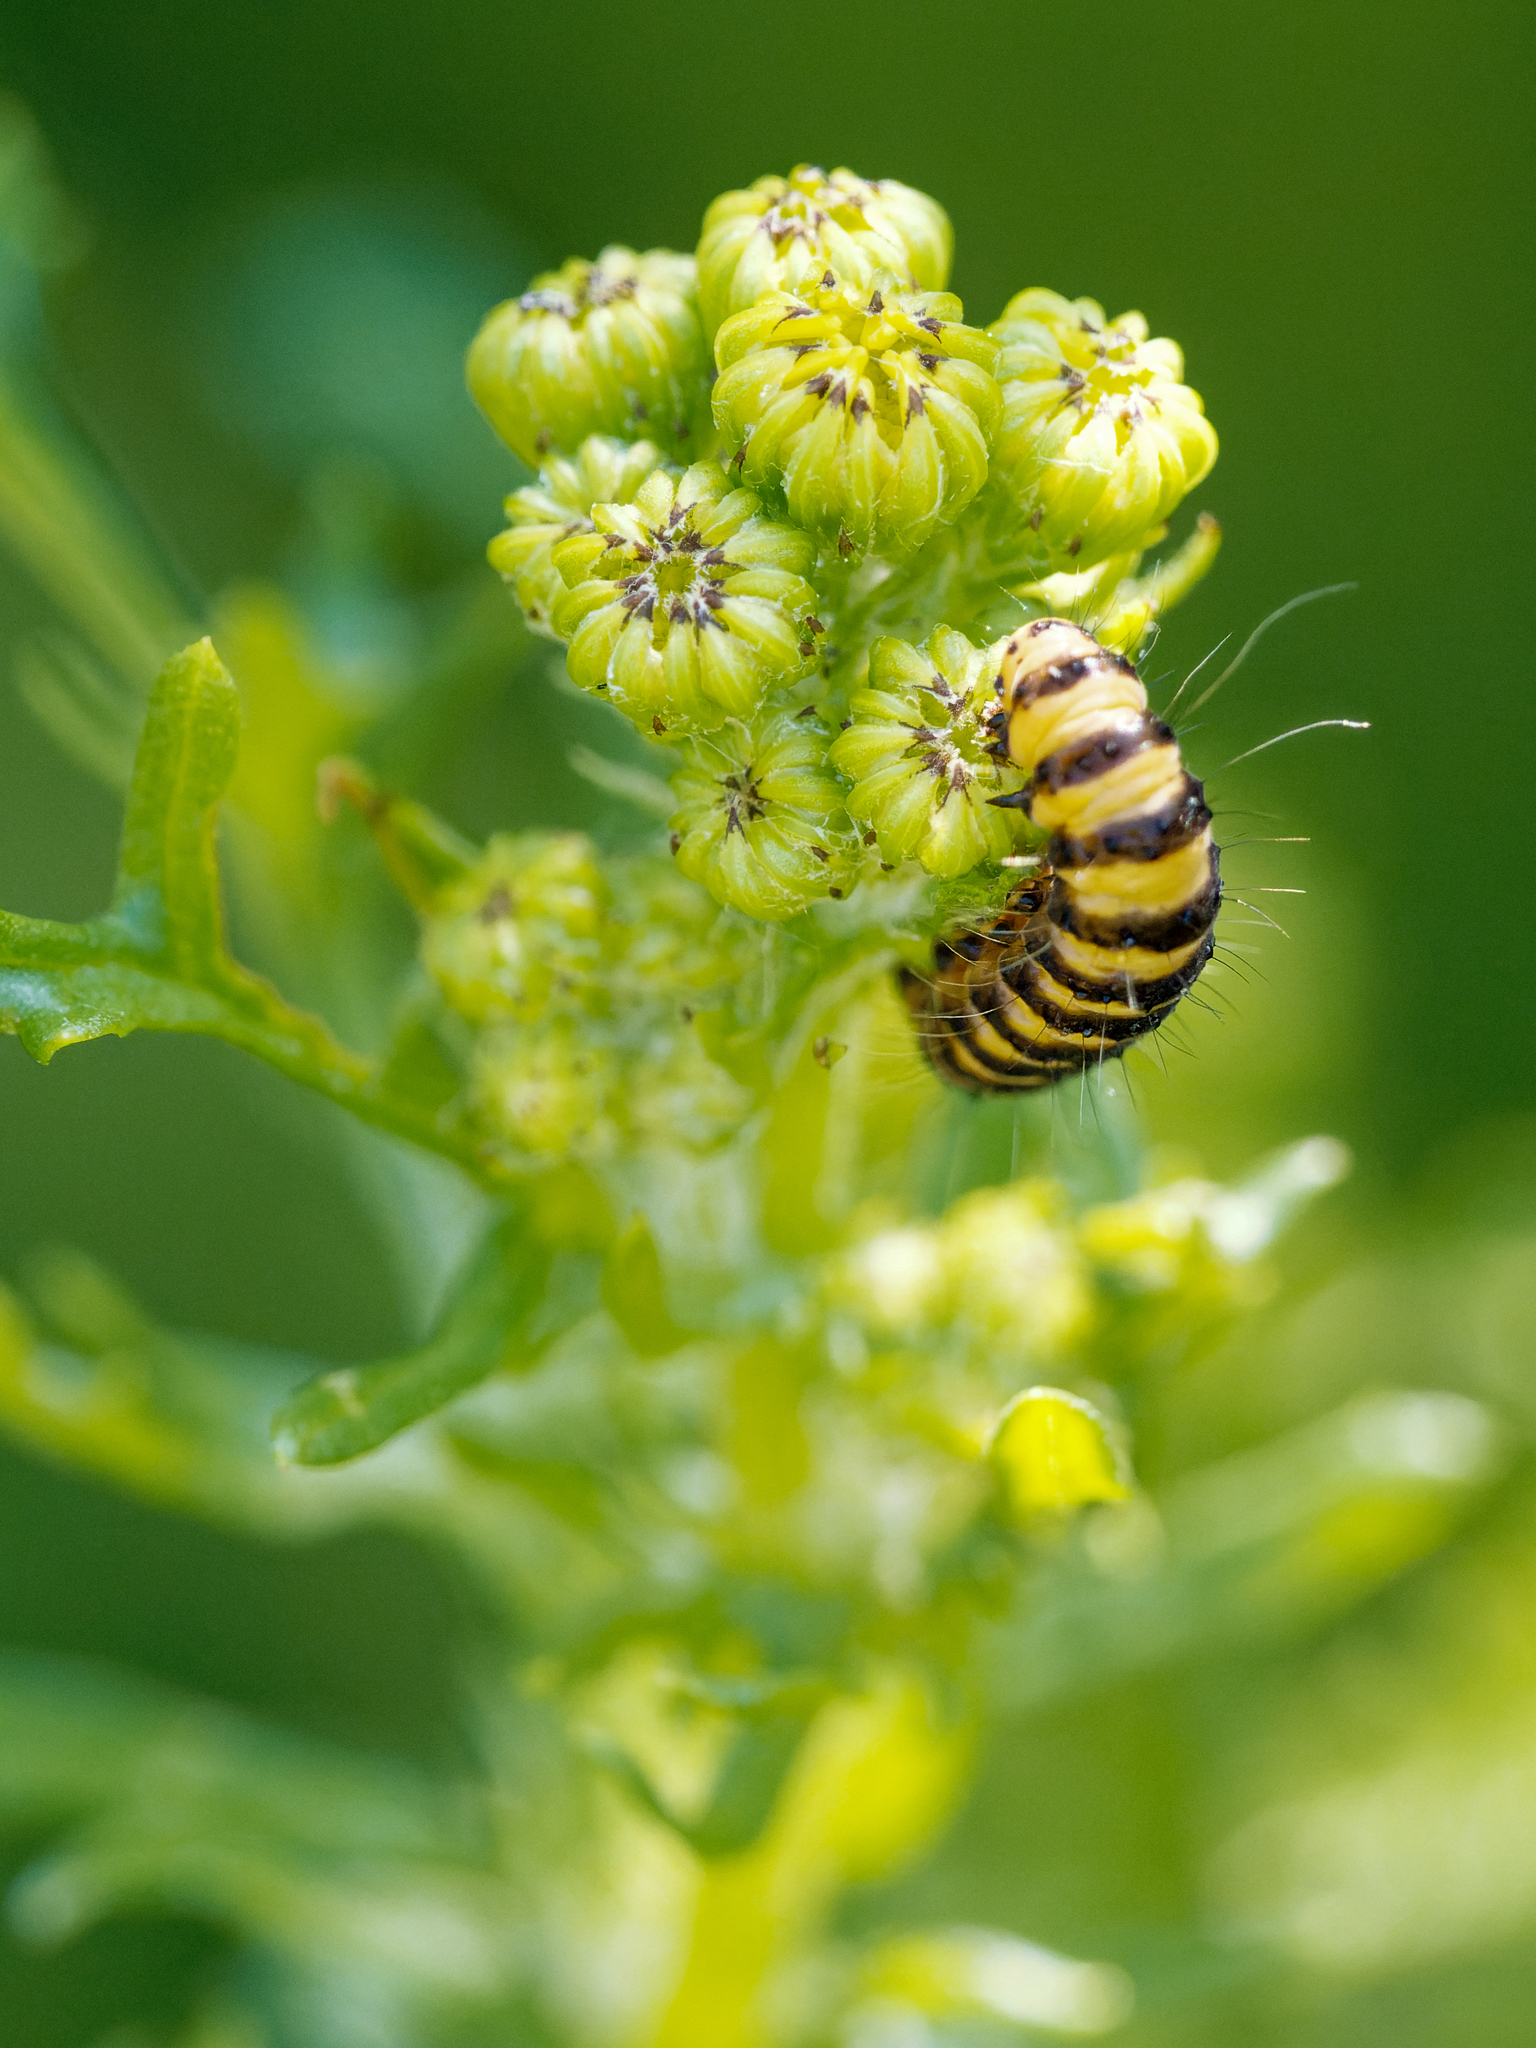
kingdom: Animalia
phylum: Arthropoda
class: Insecta
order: Lepidoptera
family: Erebidae
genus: Tyria
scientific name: Tyria jacobaeae
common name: Cinnabar
